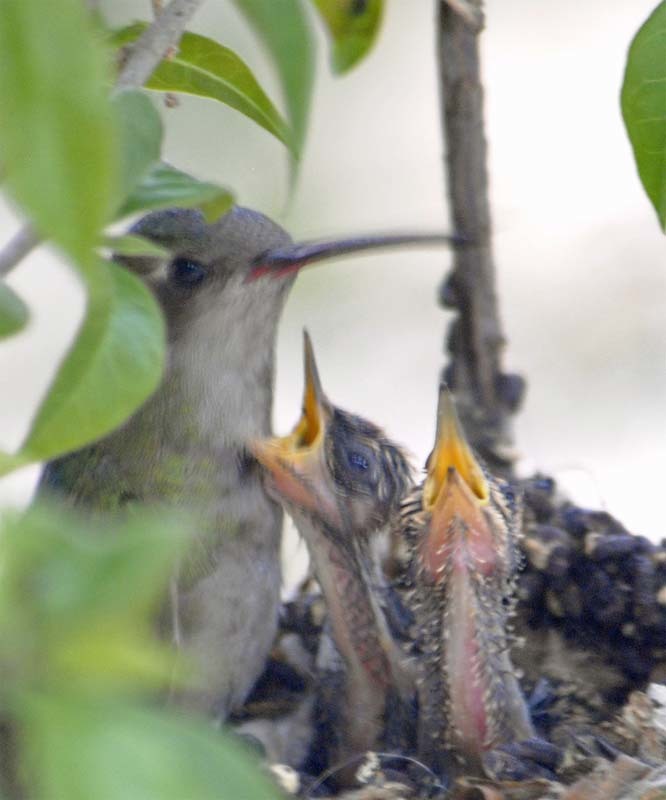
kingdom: Animalia
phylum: Chordata
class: Aves
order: Apodiformes
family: Trochilidae
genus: Cynanthus
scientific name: Cynanthus latirostris
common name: Broad-billed hummingbird
